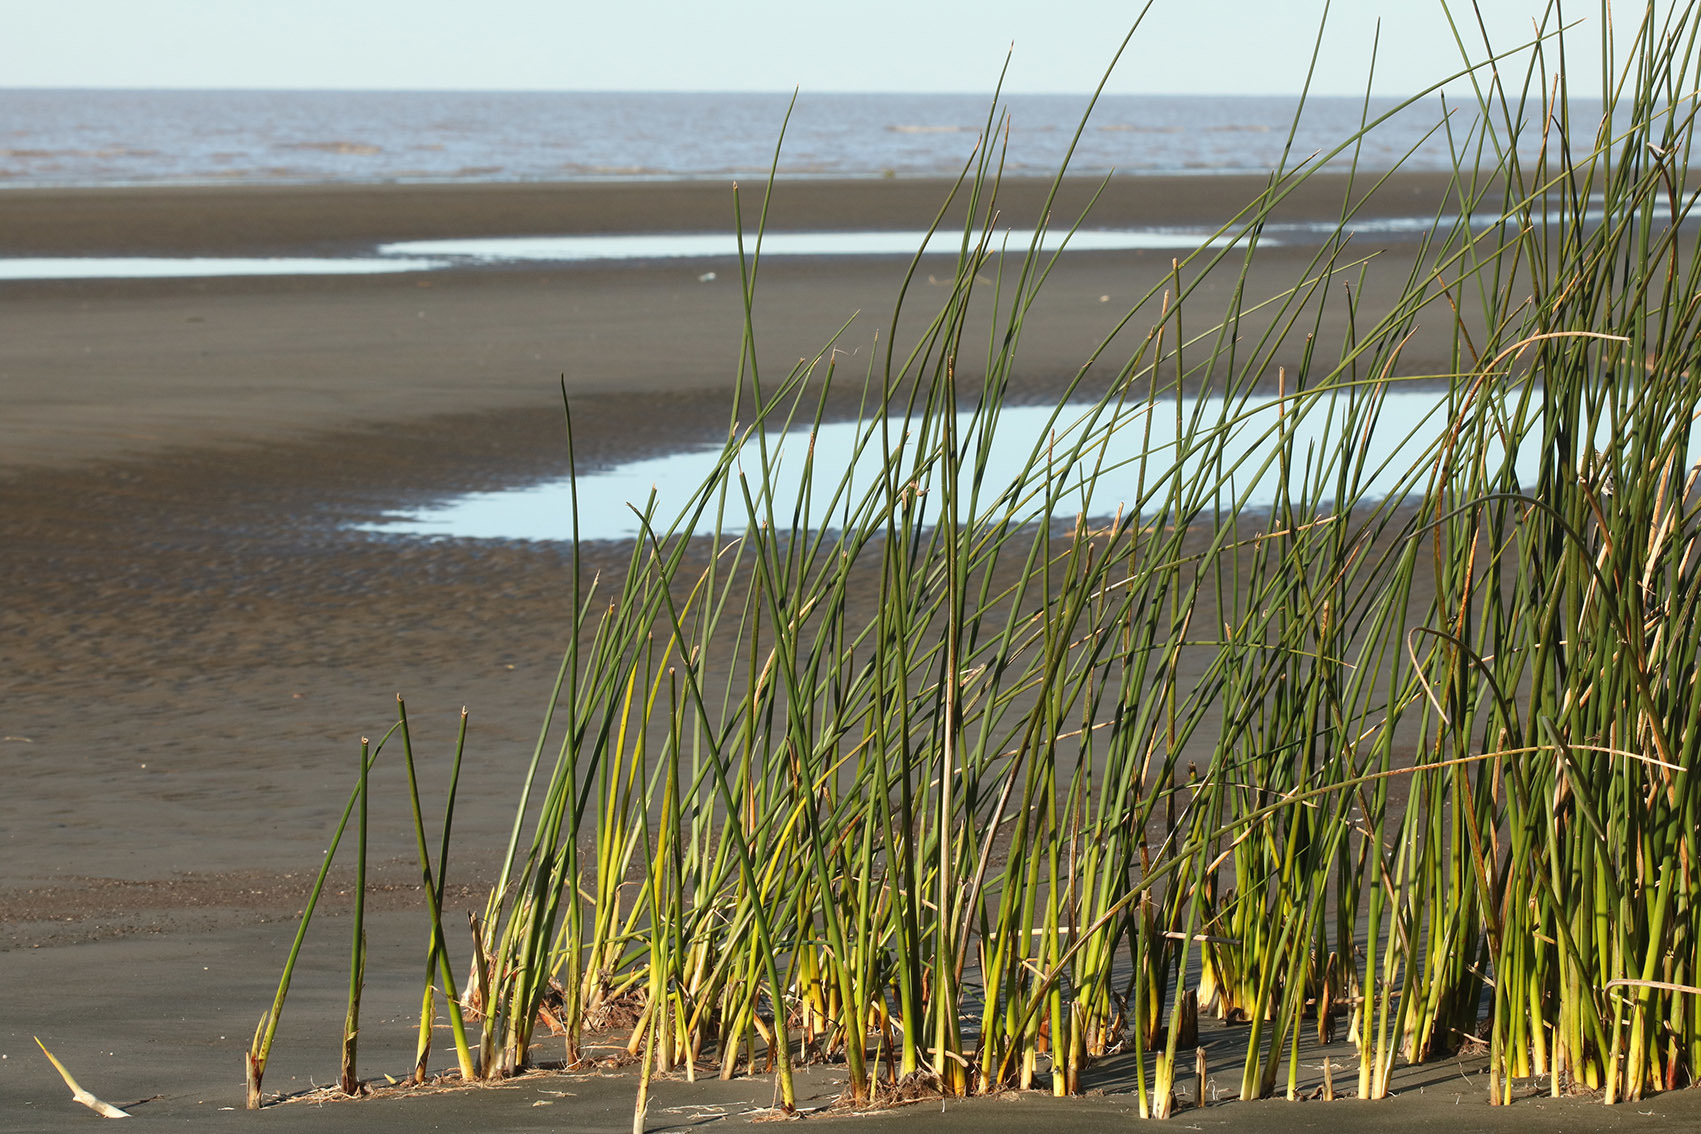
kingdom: Plantae
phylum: Tracheophyta
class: Liliopsida
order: Poales
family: Cyperaceae
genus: Schoenoplectus
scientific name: Schoenoplectus californicus
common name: California bulrush
